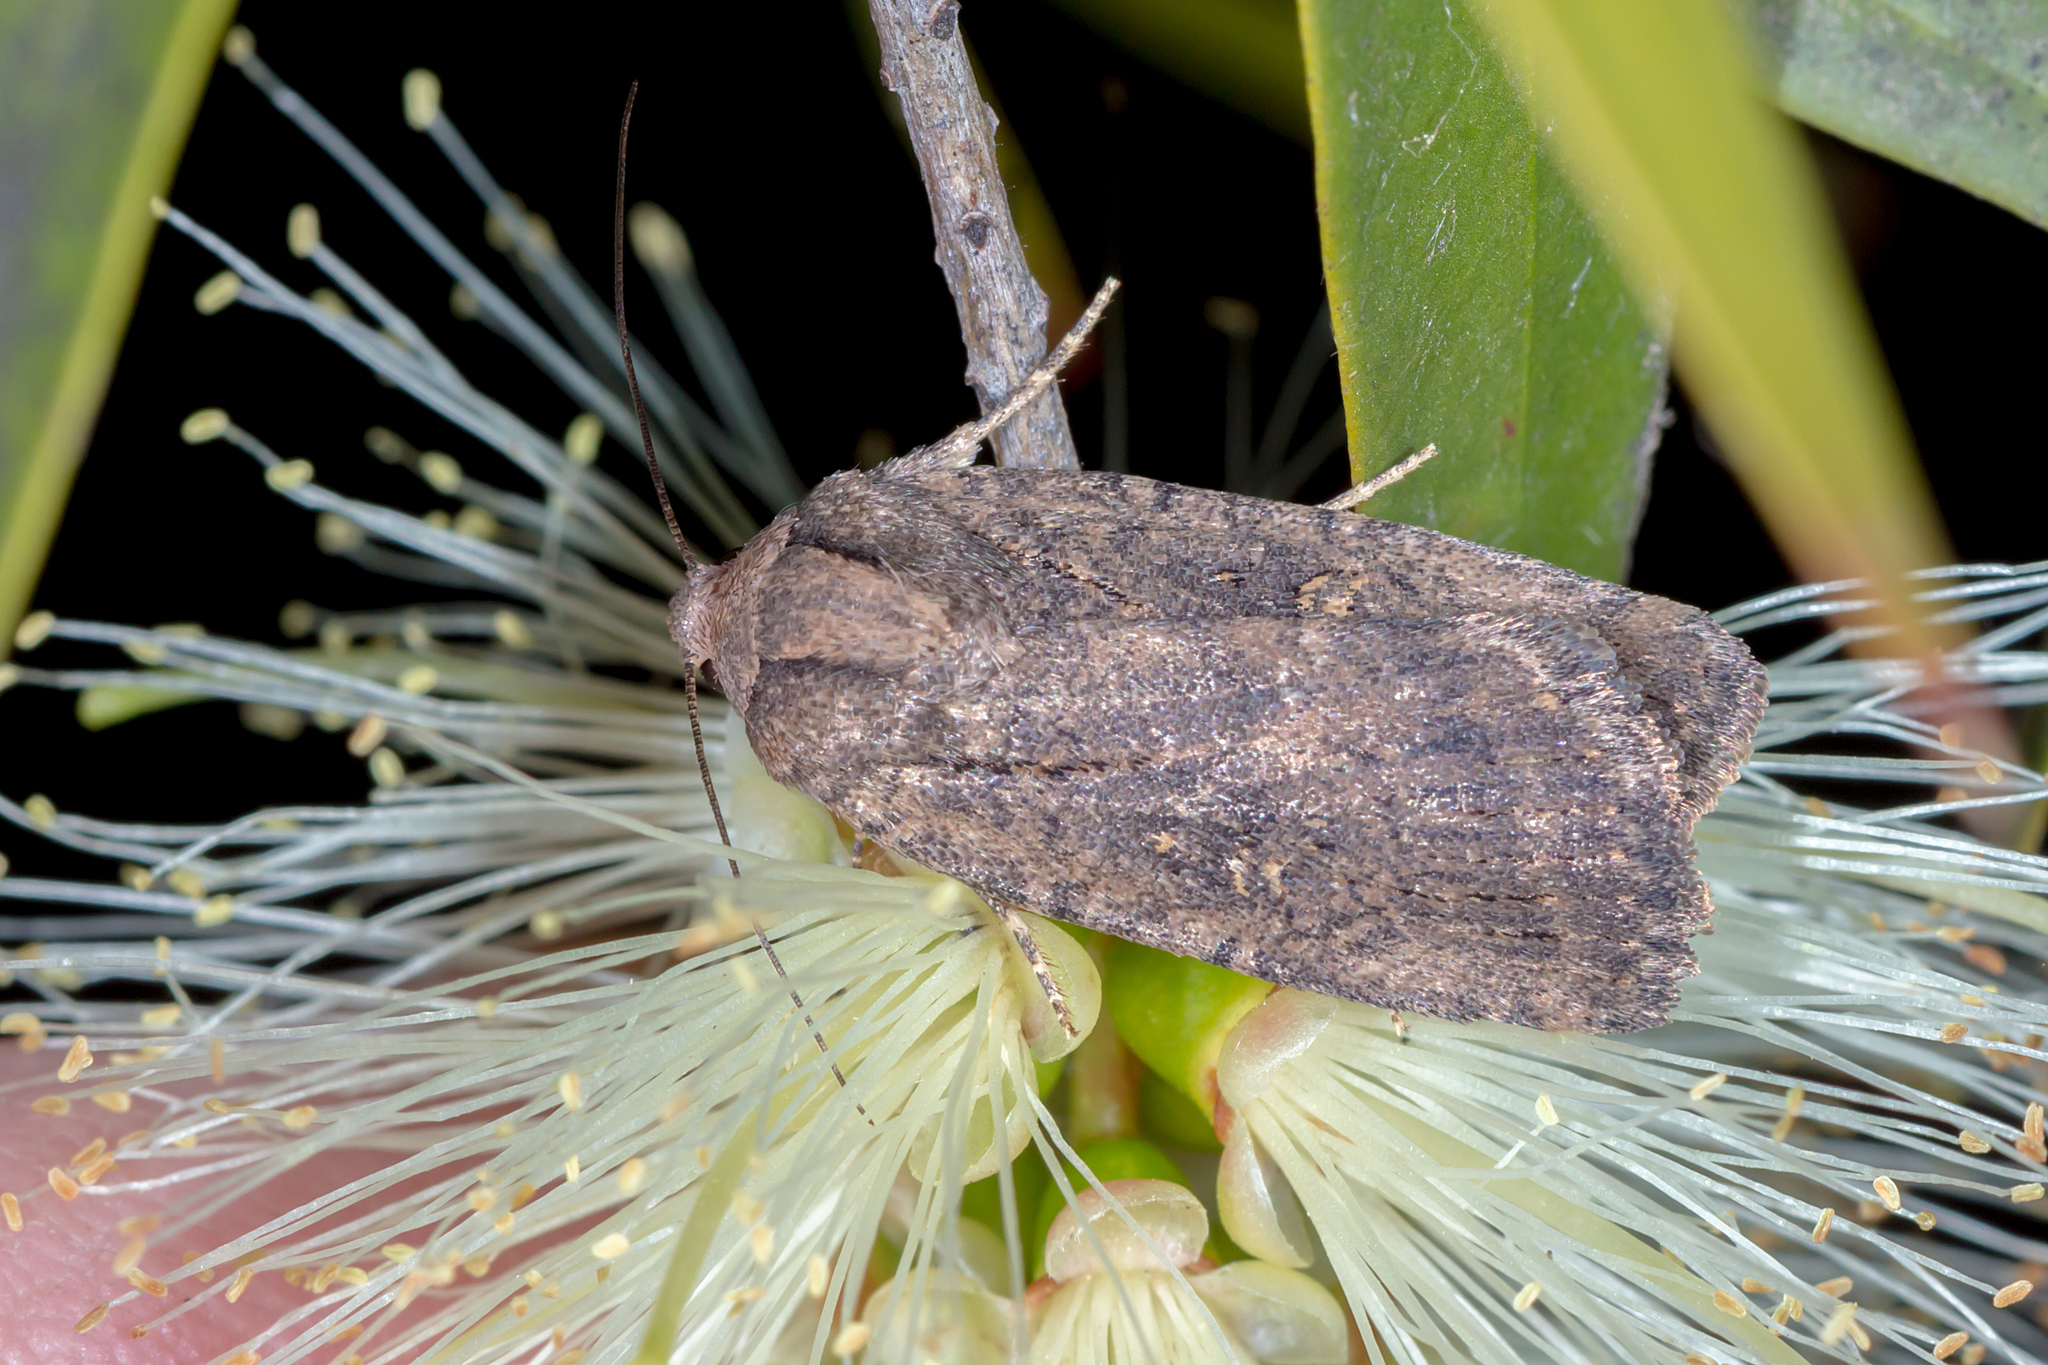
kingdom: Animalia
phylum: Arthropoda
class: Insecta
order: Lepidoptera
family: Noctuidae
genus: Thoracolopha
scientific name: Thoracolopha nycteris
